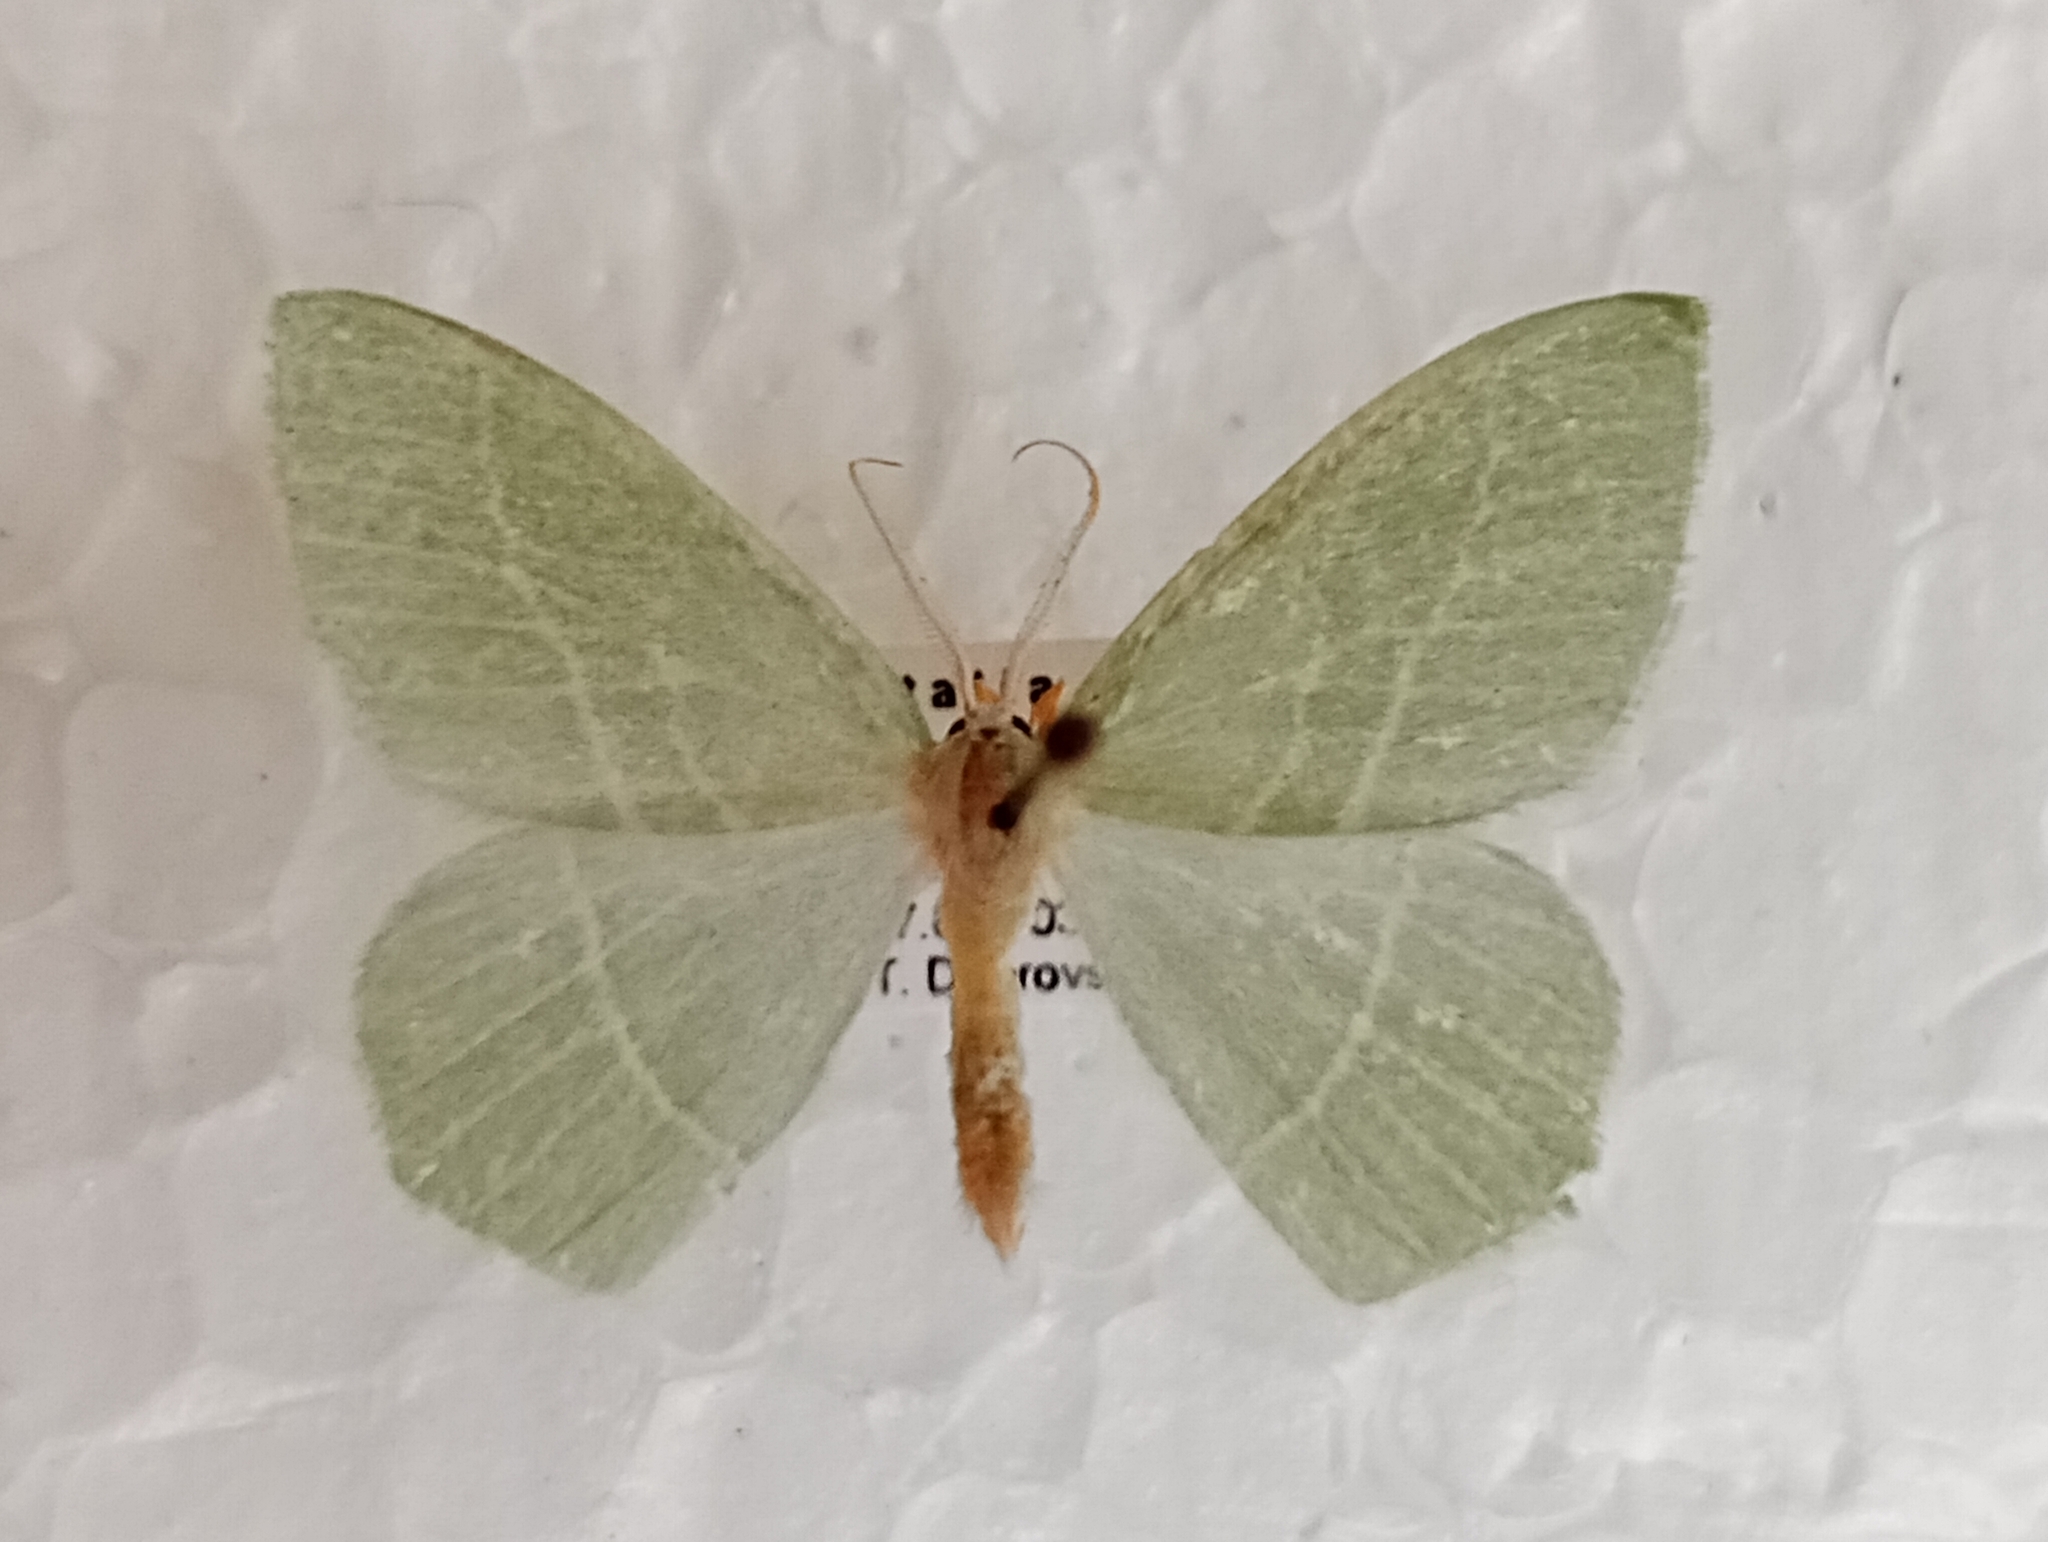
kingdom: Animalia
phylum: Arthropoda
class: Insecta
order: Lepidoptera
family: Geometridae
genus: Hemistola
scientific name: Hemistola chrysoprasaria
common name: Small emerald
